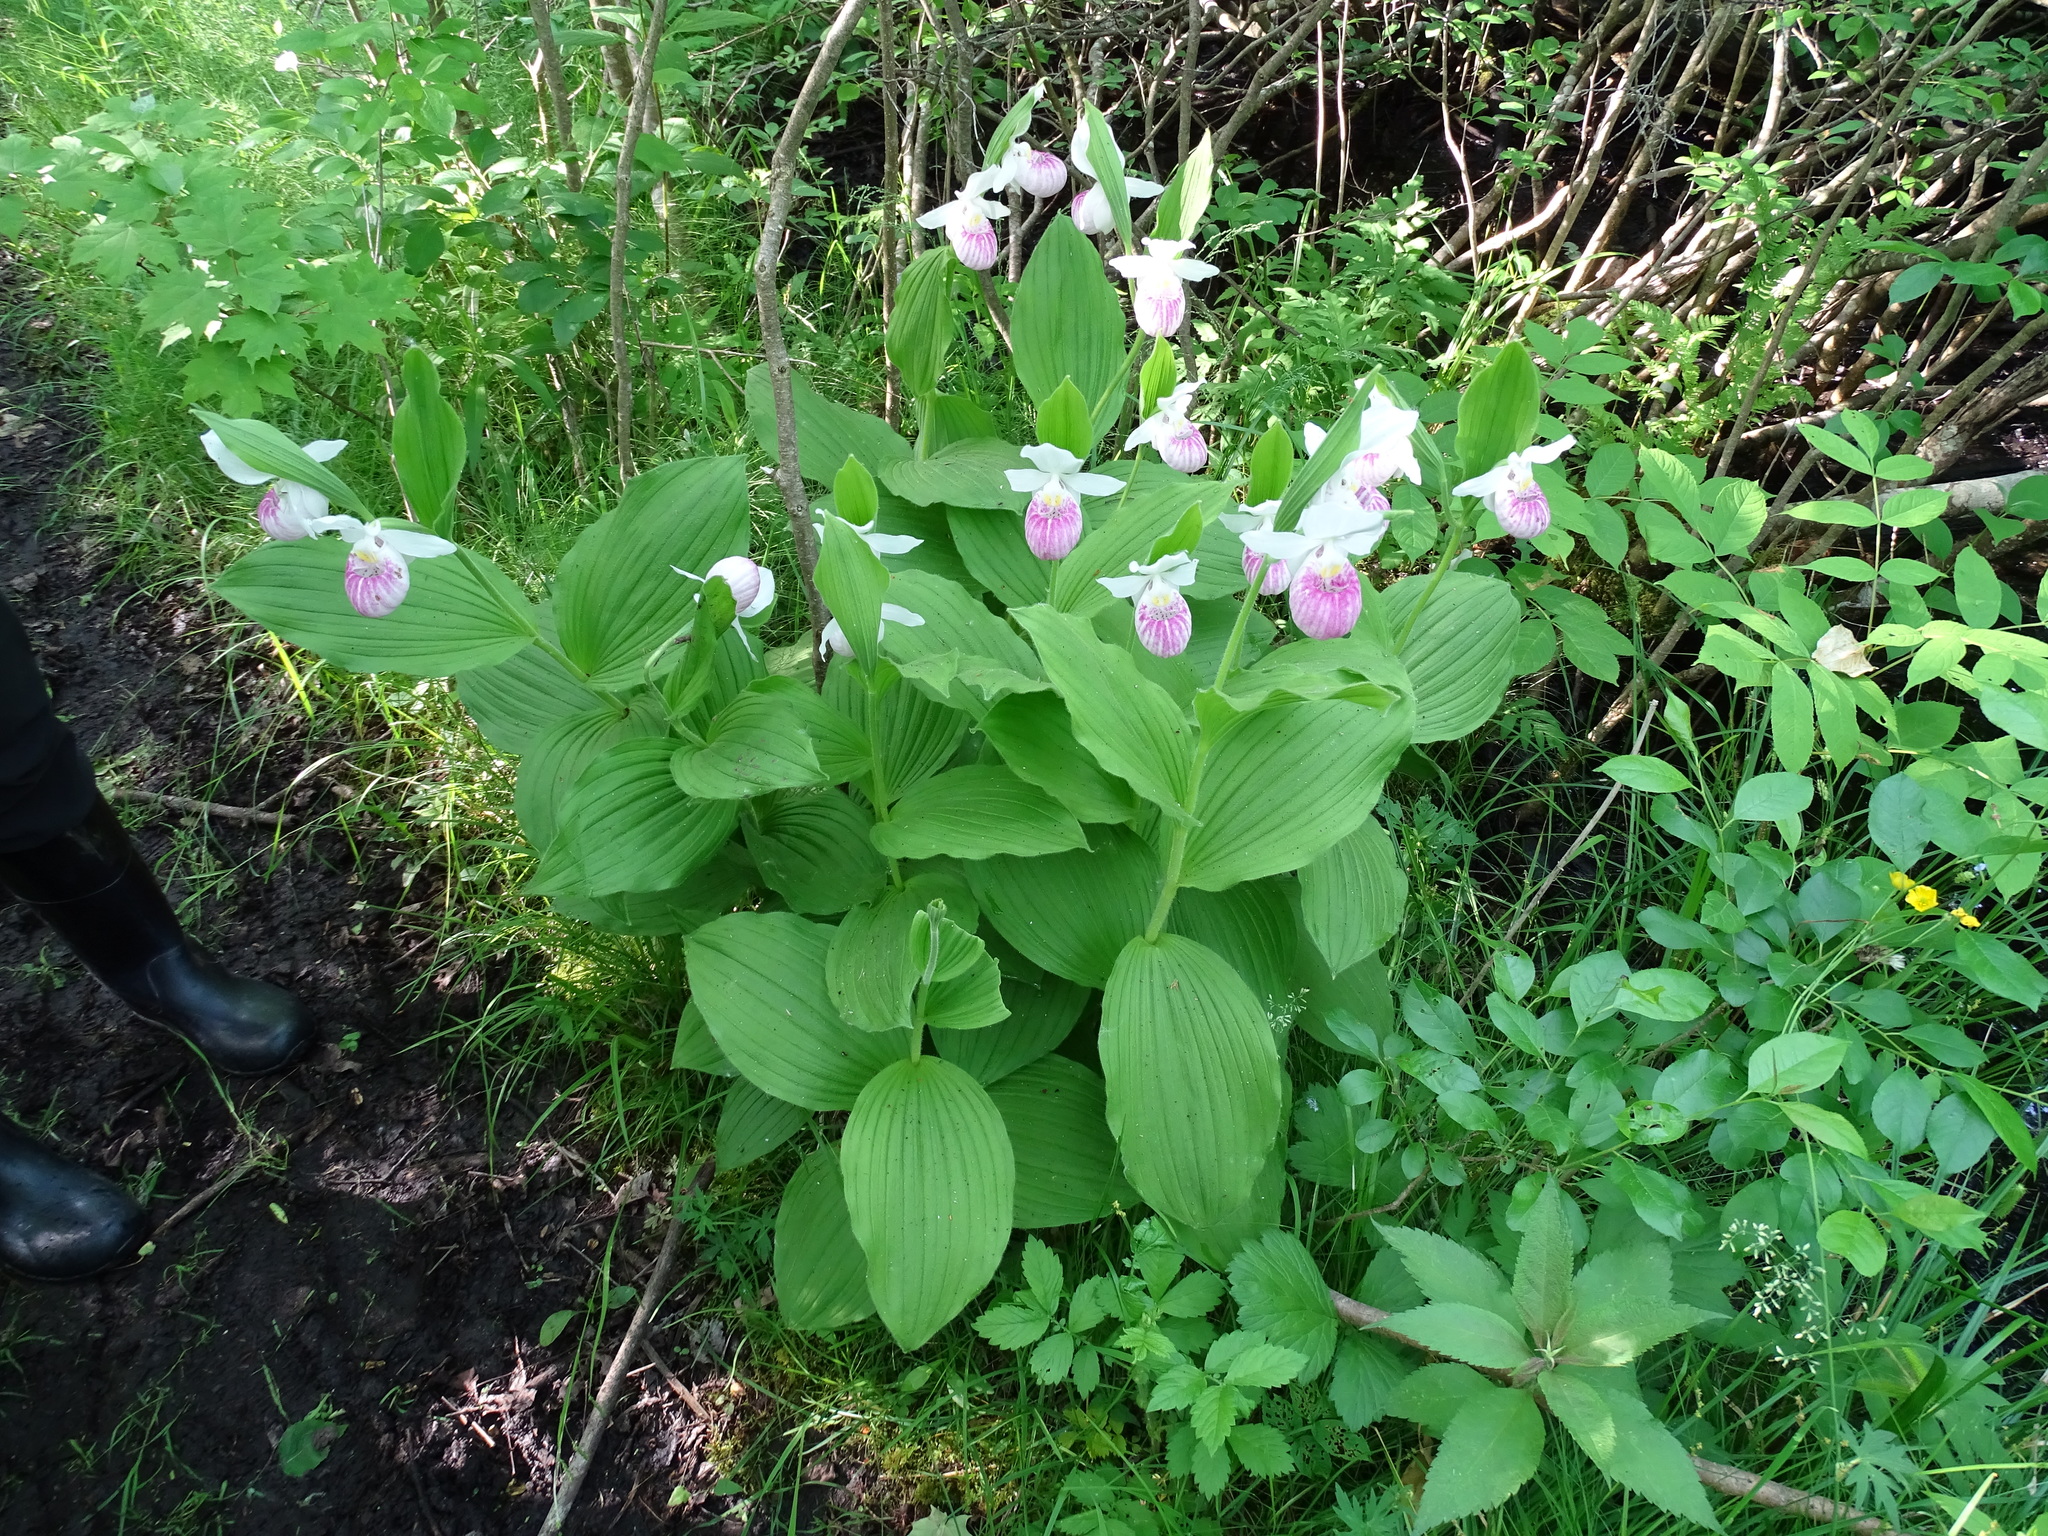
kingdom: Plantae
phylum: Tracheophyta
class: Liliopsida
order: Asparagales
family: Orchidaceae
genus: Cypripedium
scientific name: Cypripedium reginae
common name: Queen lady's-slipper
